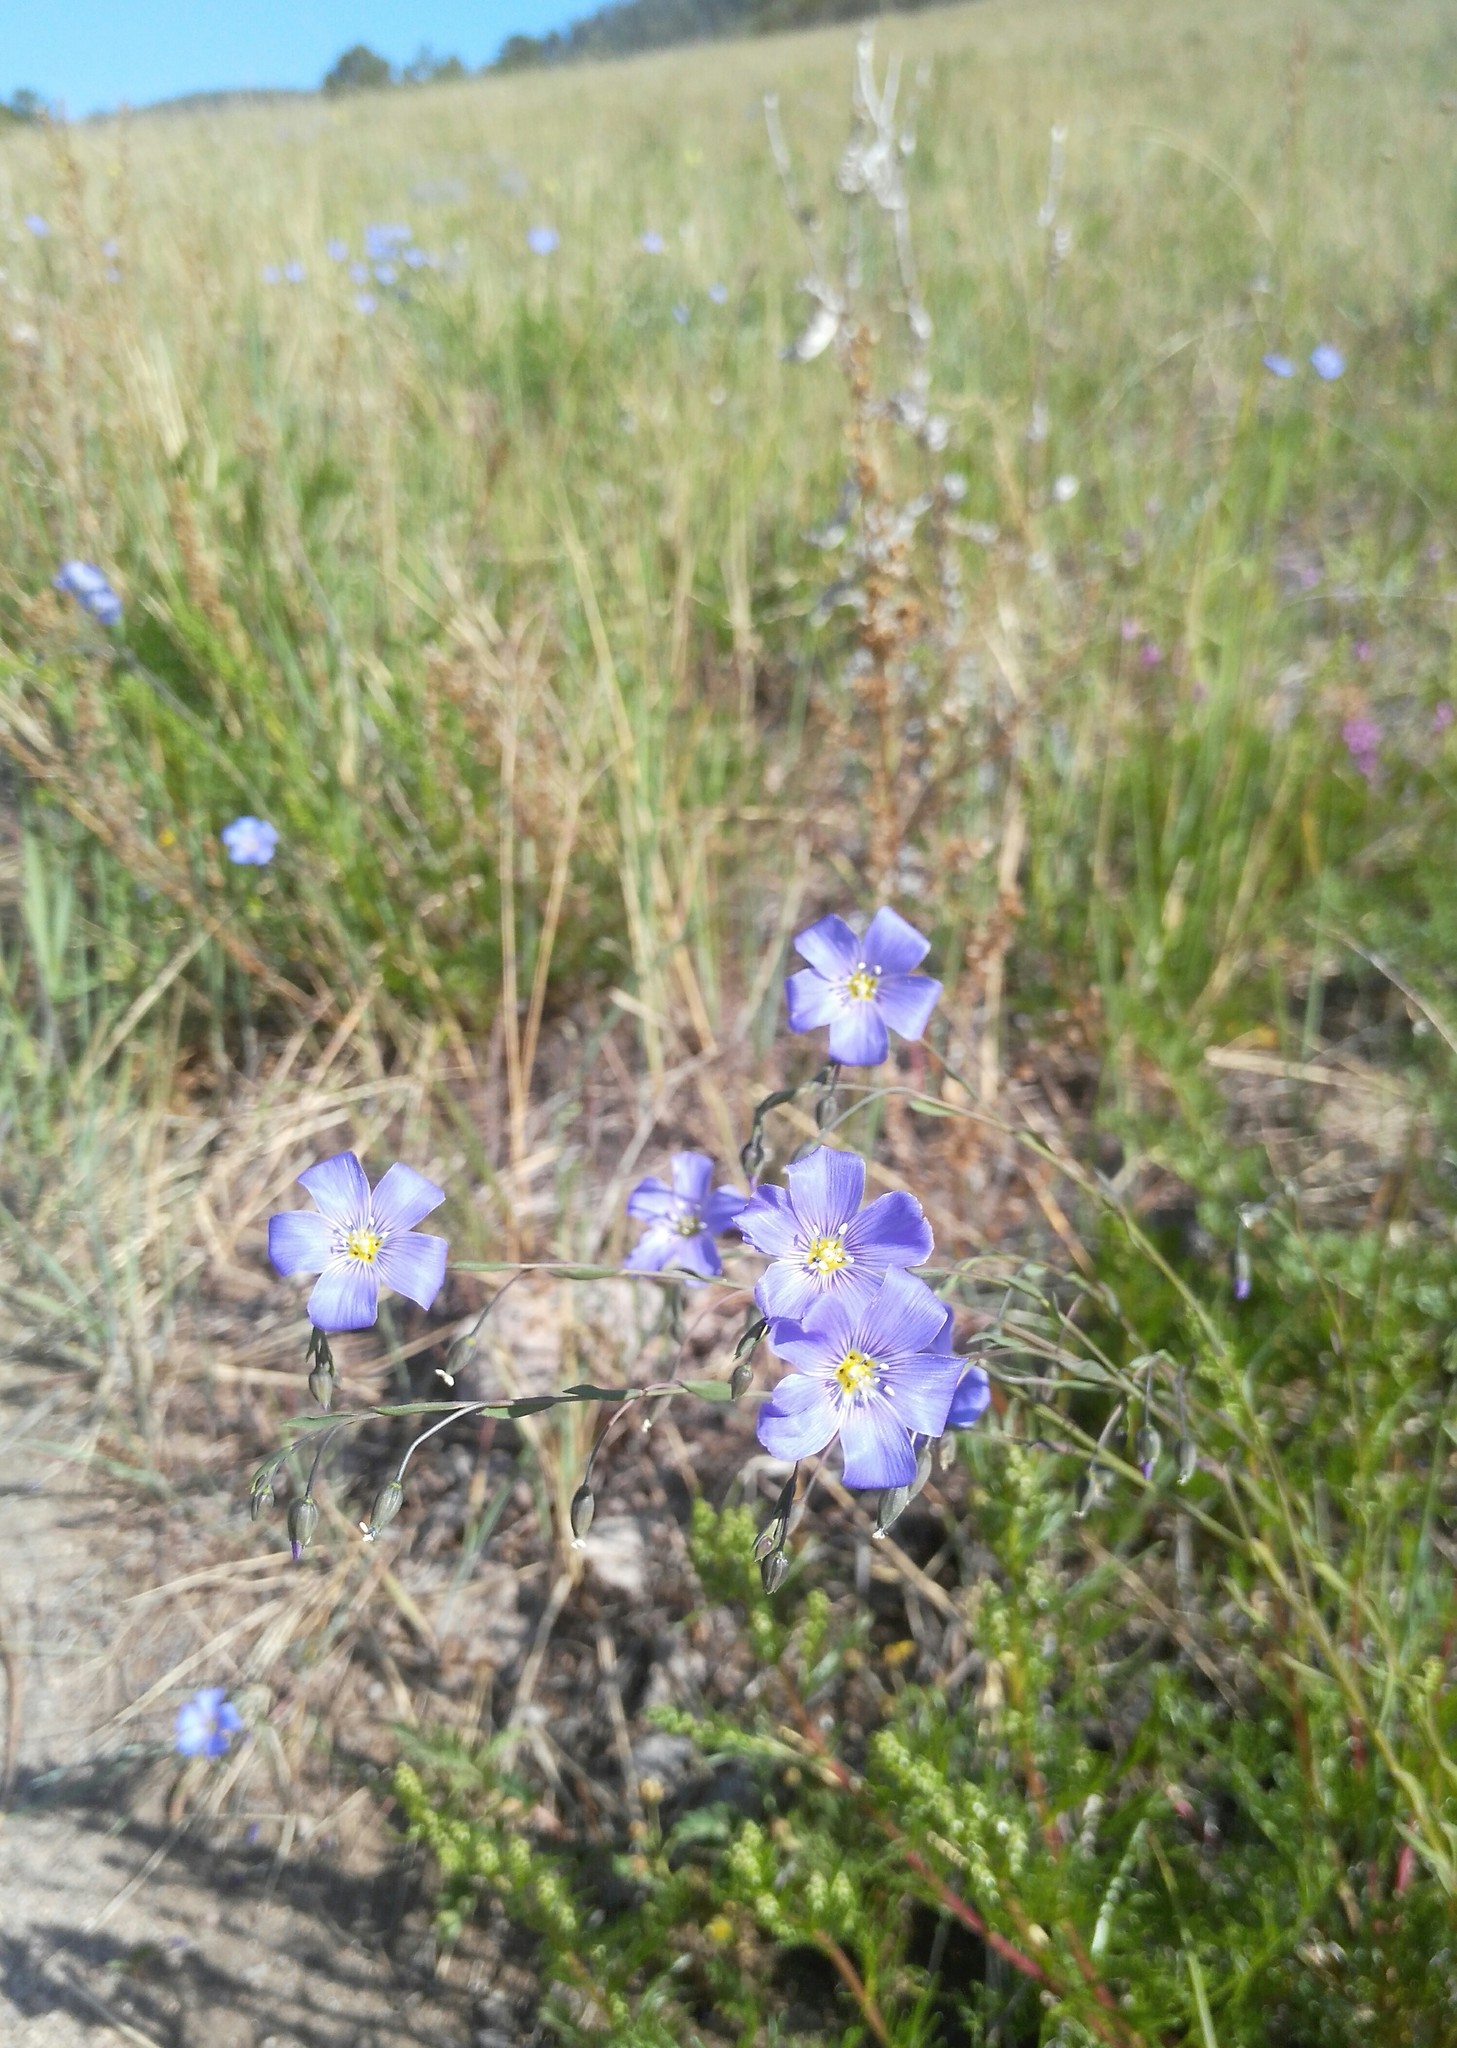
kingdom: Plantae
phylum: Tracheophyta
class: Magnoliopsida
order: Malpighiales
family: Linaceae
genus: Linum
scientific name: Linum perenne
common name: Blue flax
